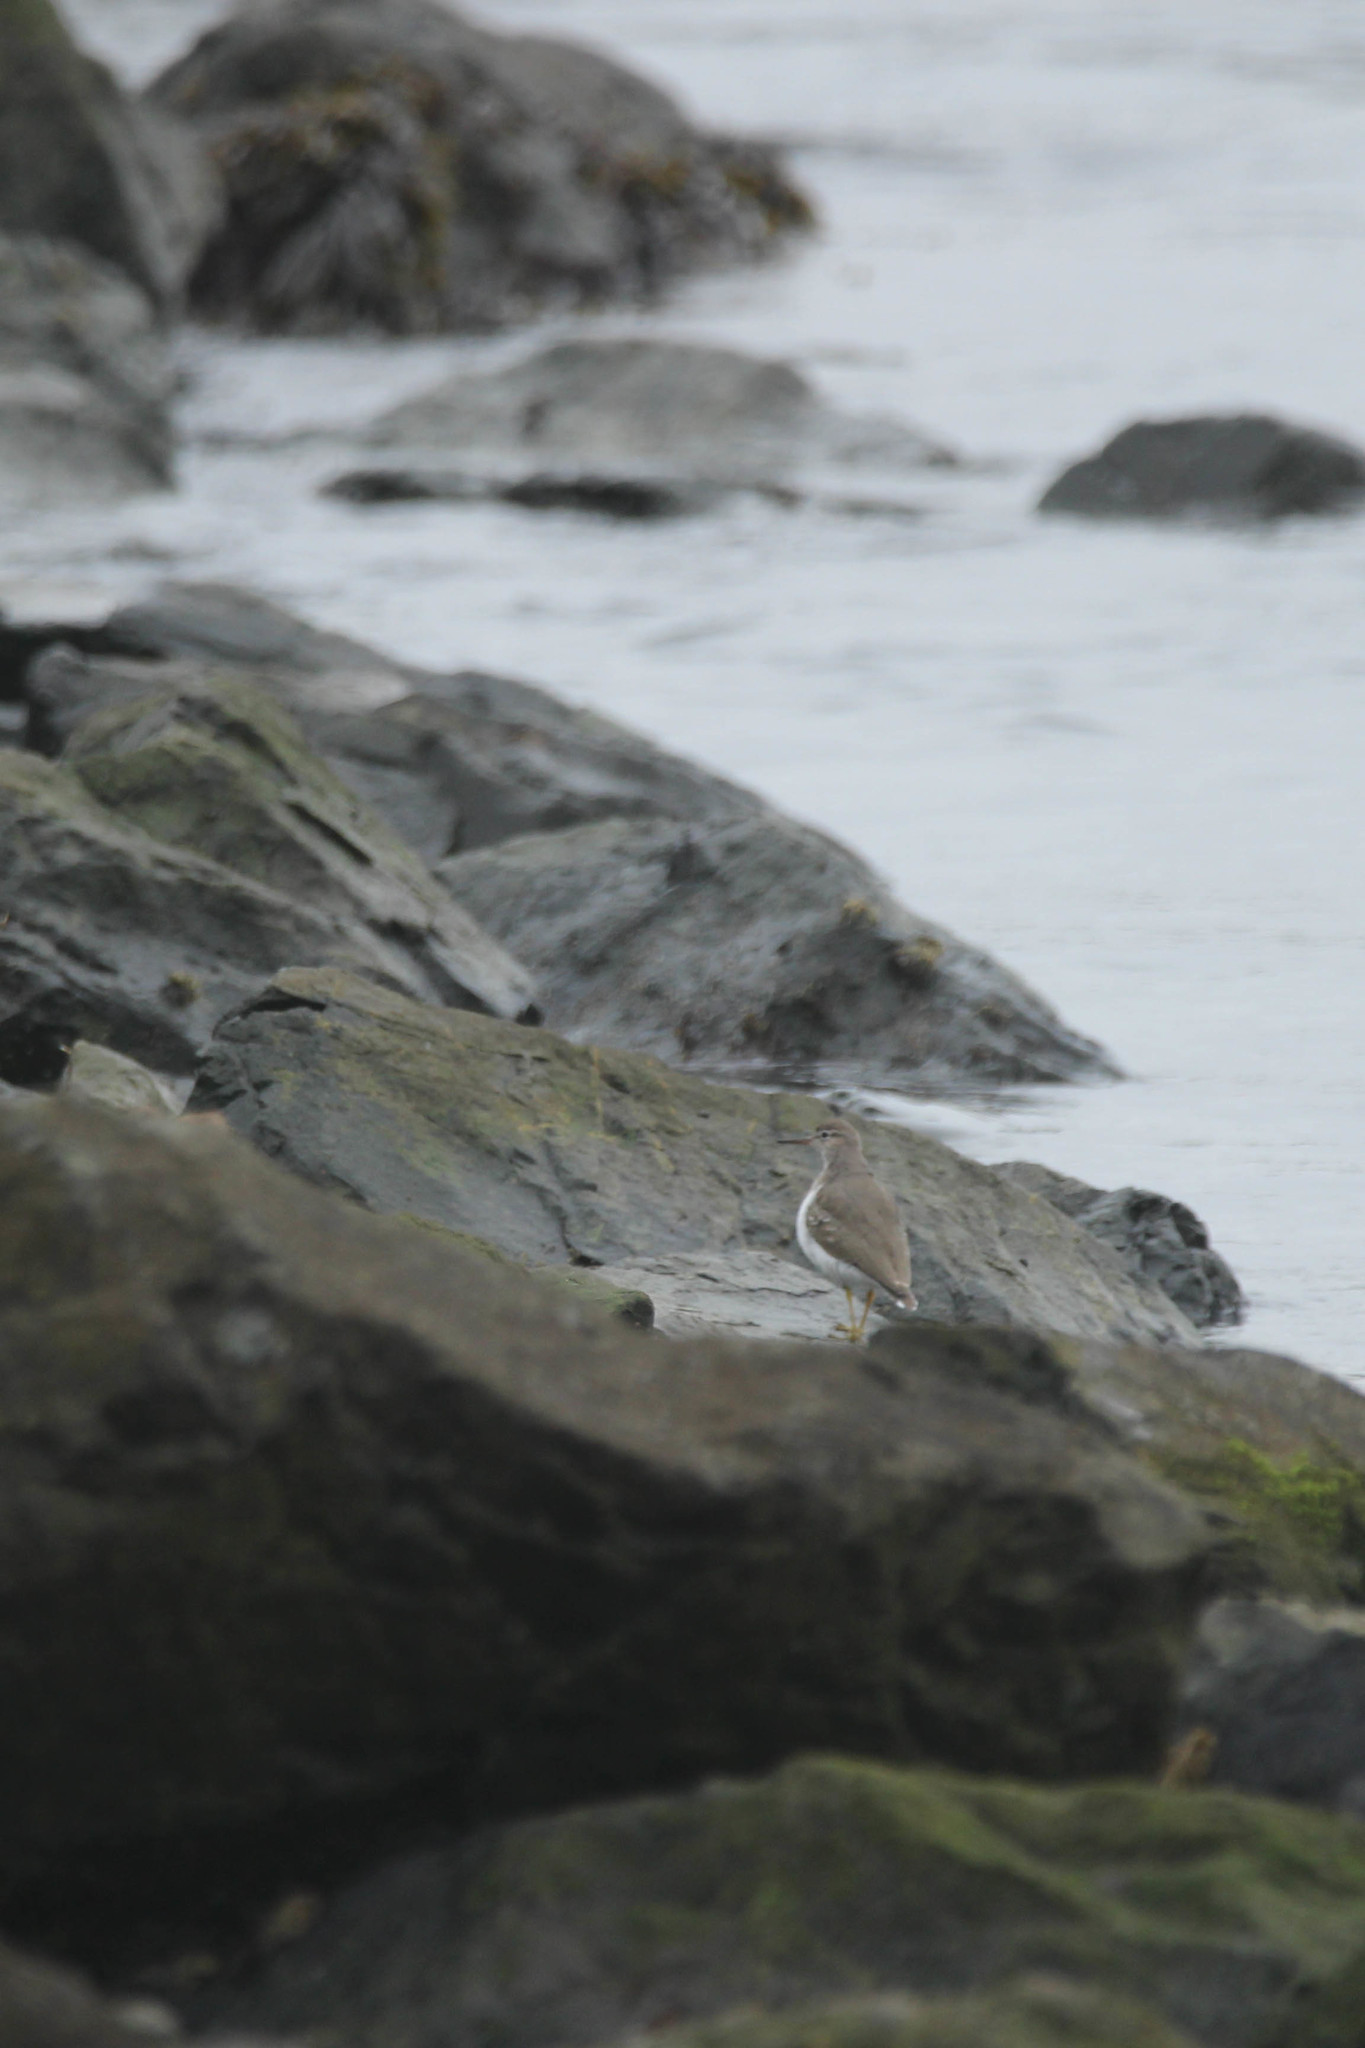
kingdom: Animalia
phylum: Chordata
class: Aves
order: Charadriiformes
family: Scolopacidae
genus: Actitis
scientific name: Actitis macularius
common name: Spotted sandpiper
